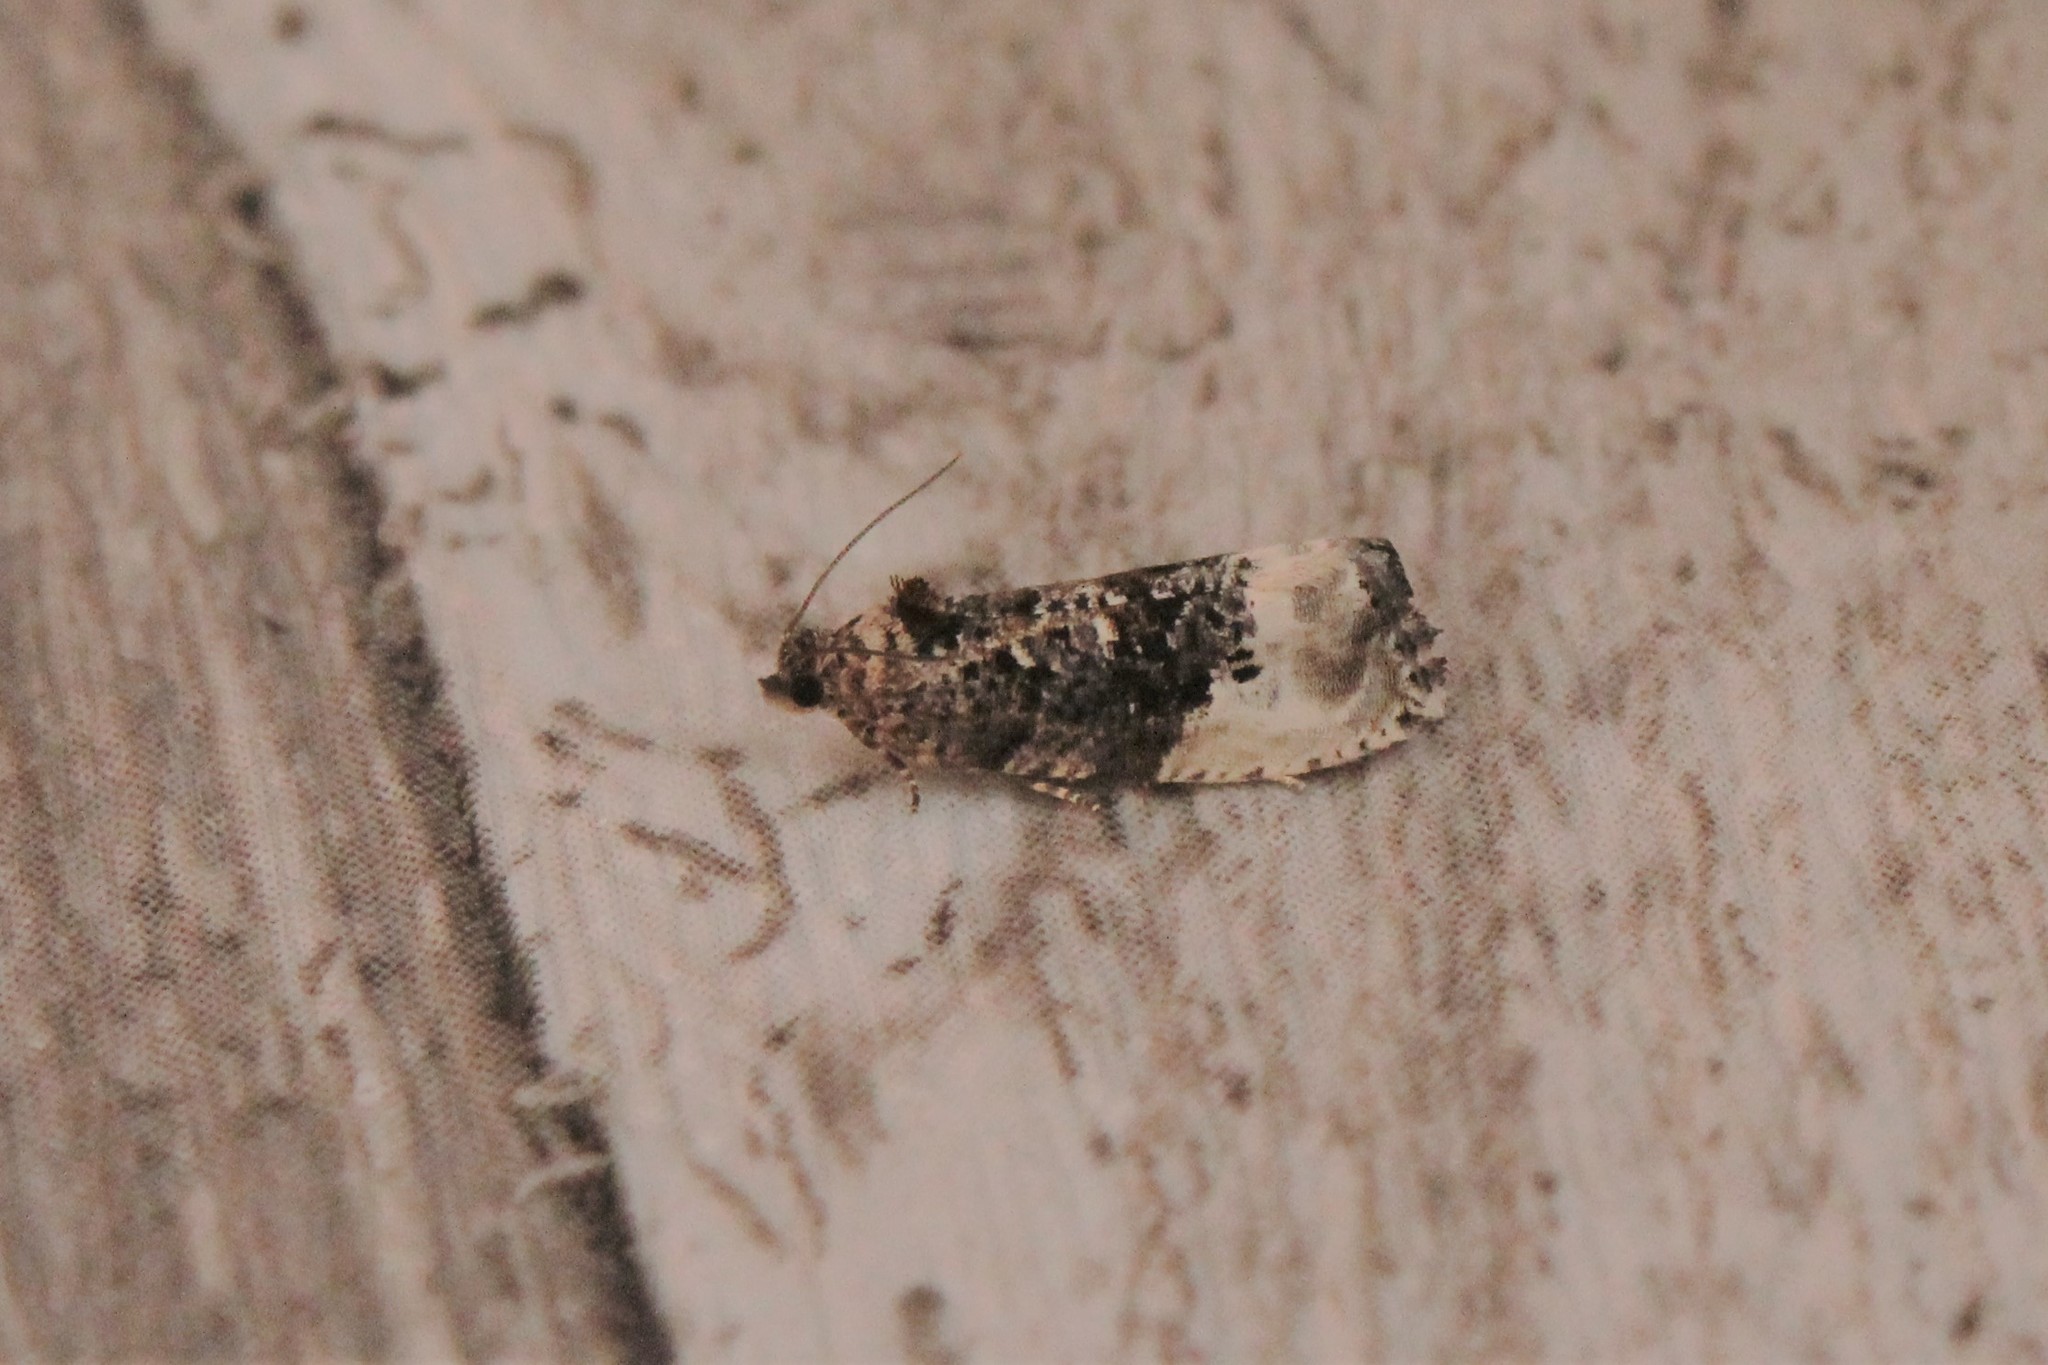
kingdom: Animalia
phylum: Arthropoda
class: Insecta
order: Lepidoptera
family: Tortricidae
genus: Hedya
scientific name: Hedya nubiferana
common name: Marbled orchard tortrix
